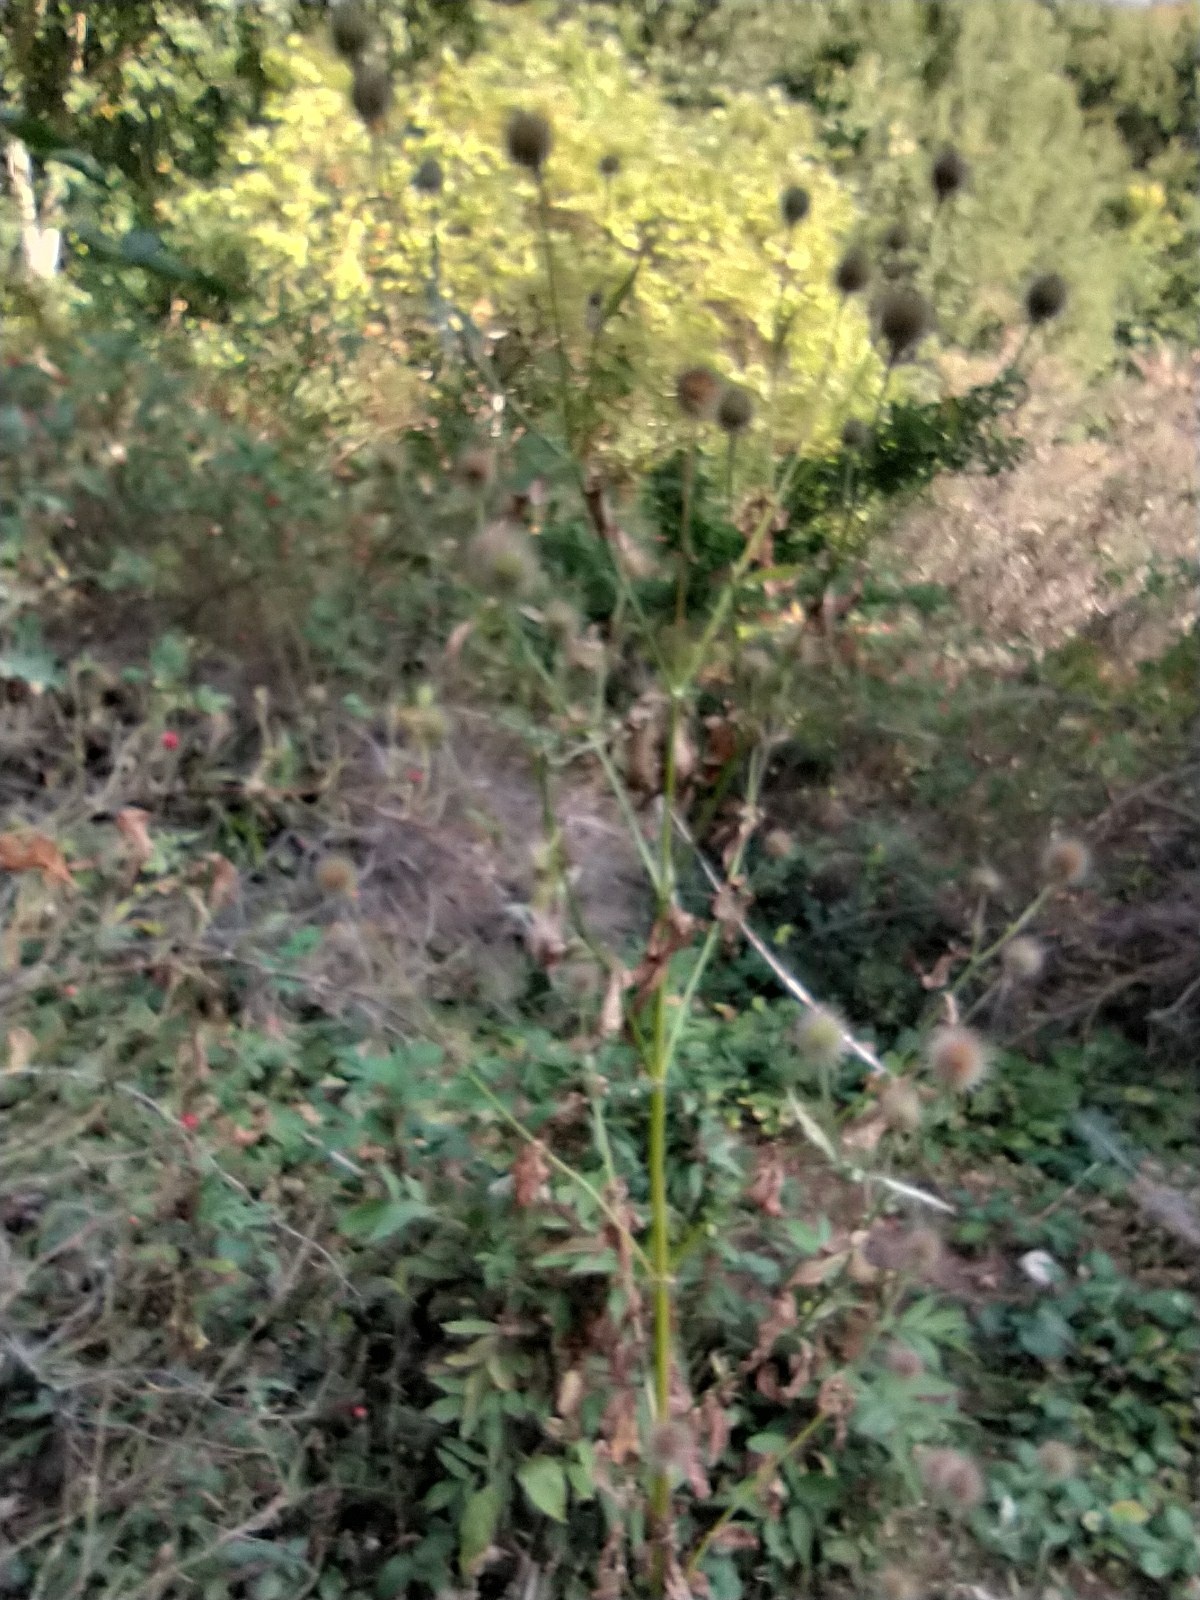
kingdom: Plantae
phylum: Tracheophyta
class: Magnoliopsida
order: Dipsacales
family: Caprifoliaceae
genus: Dipsacus
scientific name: Dipsacus strigosus
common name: Yellow-flowered teasel
